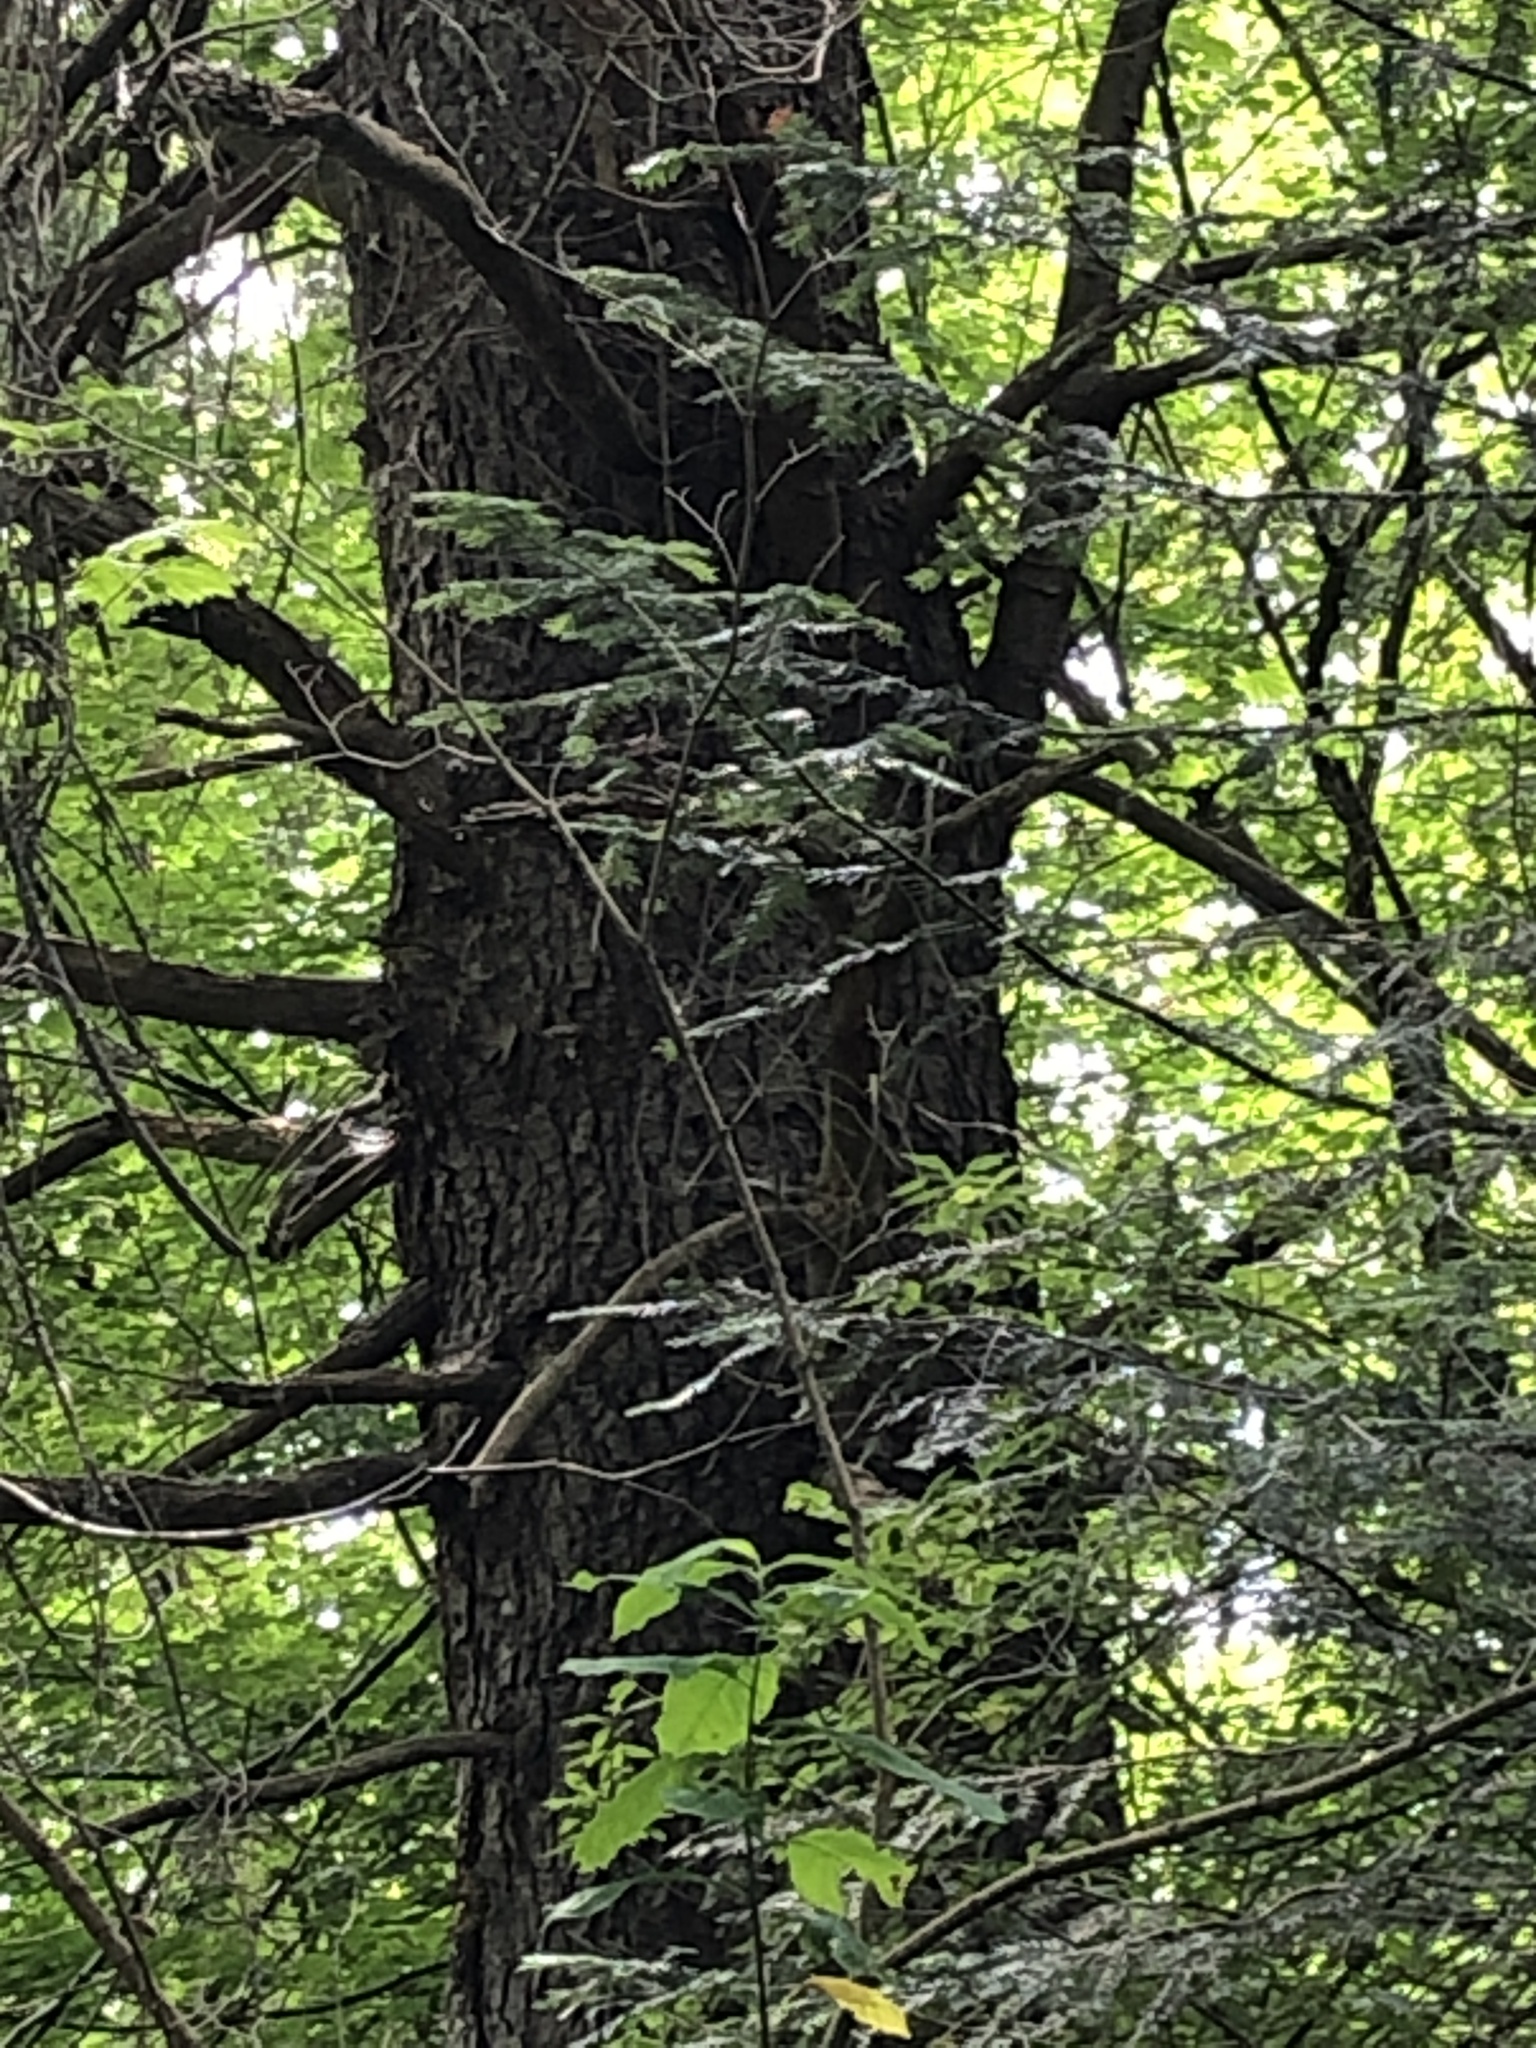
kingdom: Plantae
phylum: Tracheophyta
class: Pinopsida
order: Pinales
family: Pinaceae
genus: Picea
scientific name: Picea sitchensis
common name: Sitka spruce
